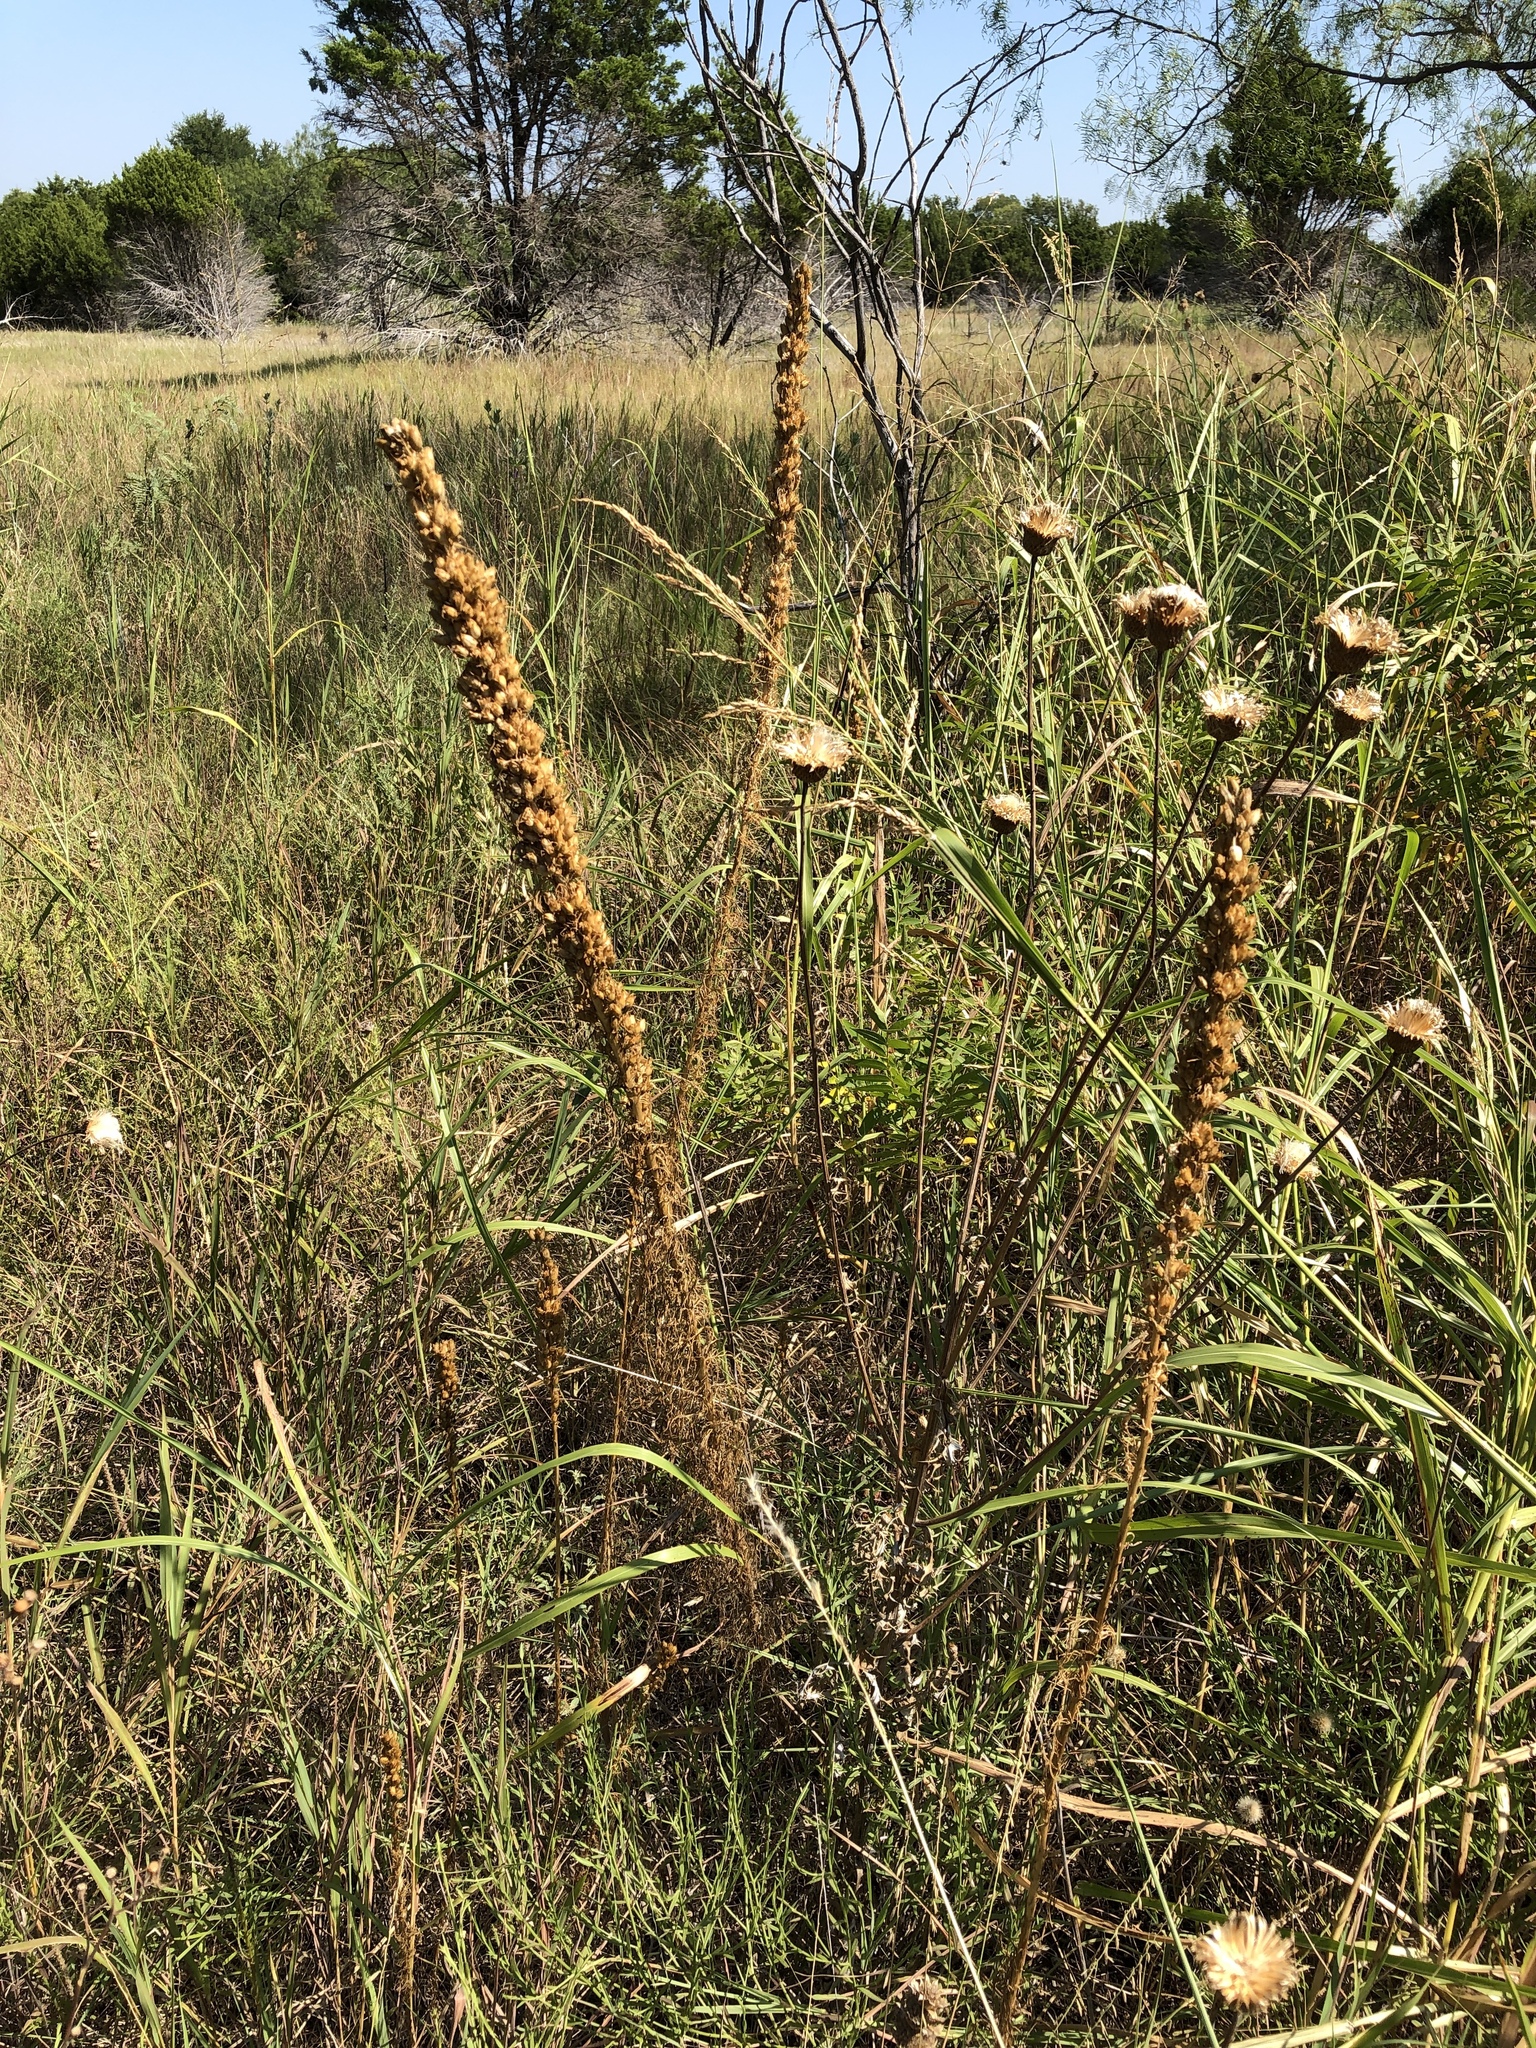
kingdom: Plantae
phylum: Tracheophyta
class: Magnoliopsida
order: Ericales
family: Polemoniaceae
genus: Ipomopsis
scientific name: Ipomopsis rubra
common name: Skyrocket
